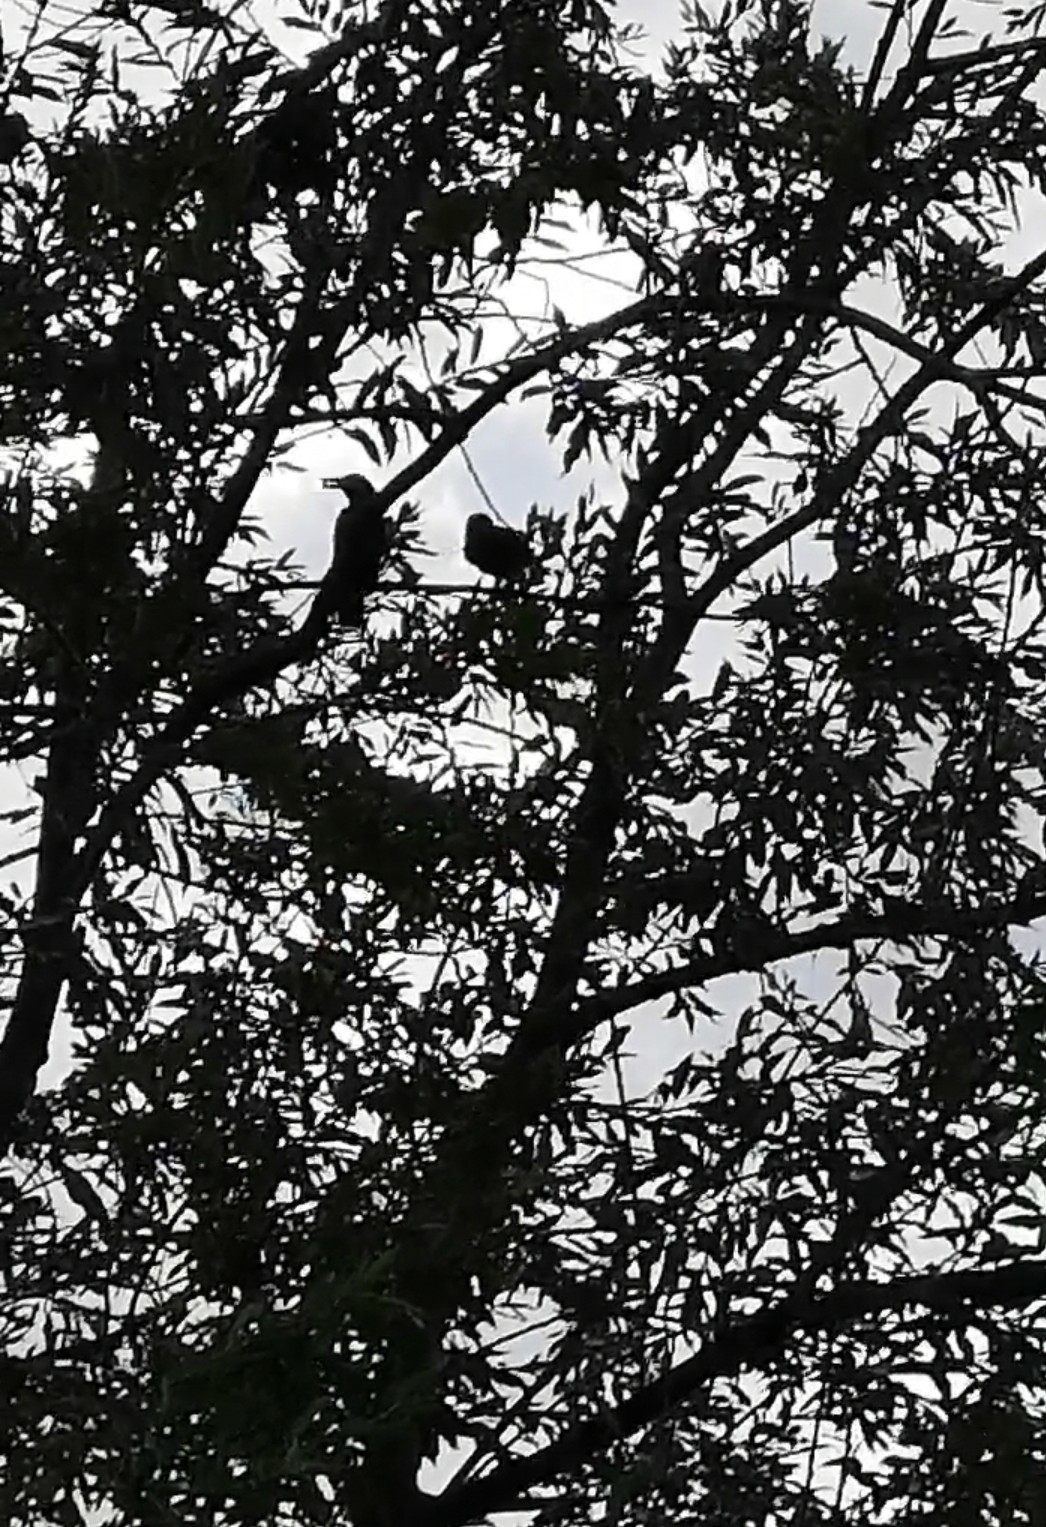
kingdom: Animalia
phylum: Chordata
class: Aves
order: Passeriformes
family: Corvidae
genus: Nucifraga
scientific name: Nucifraga caryocatactes
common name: Spotted nutcracker
